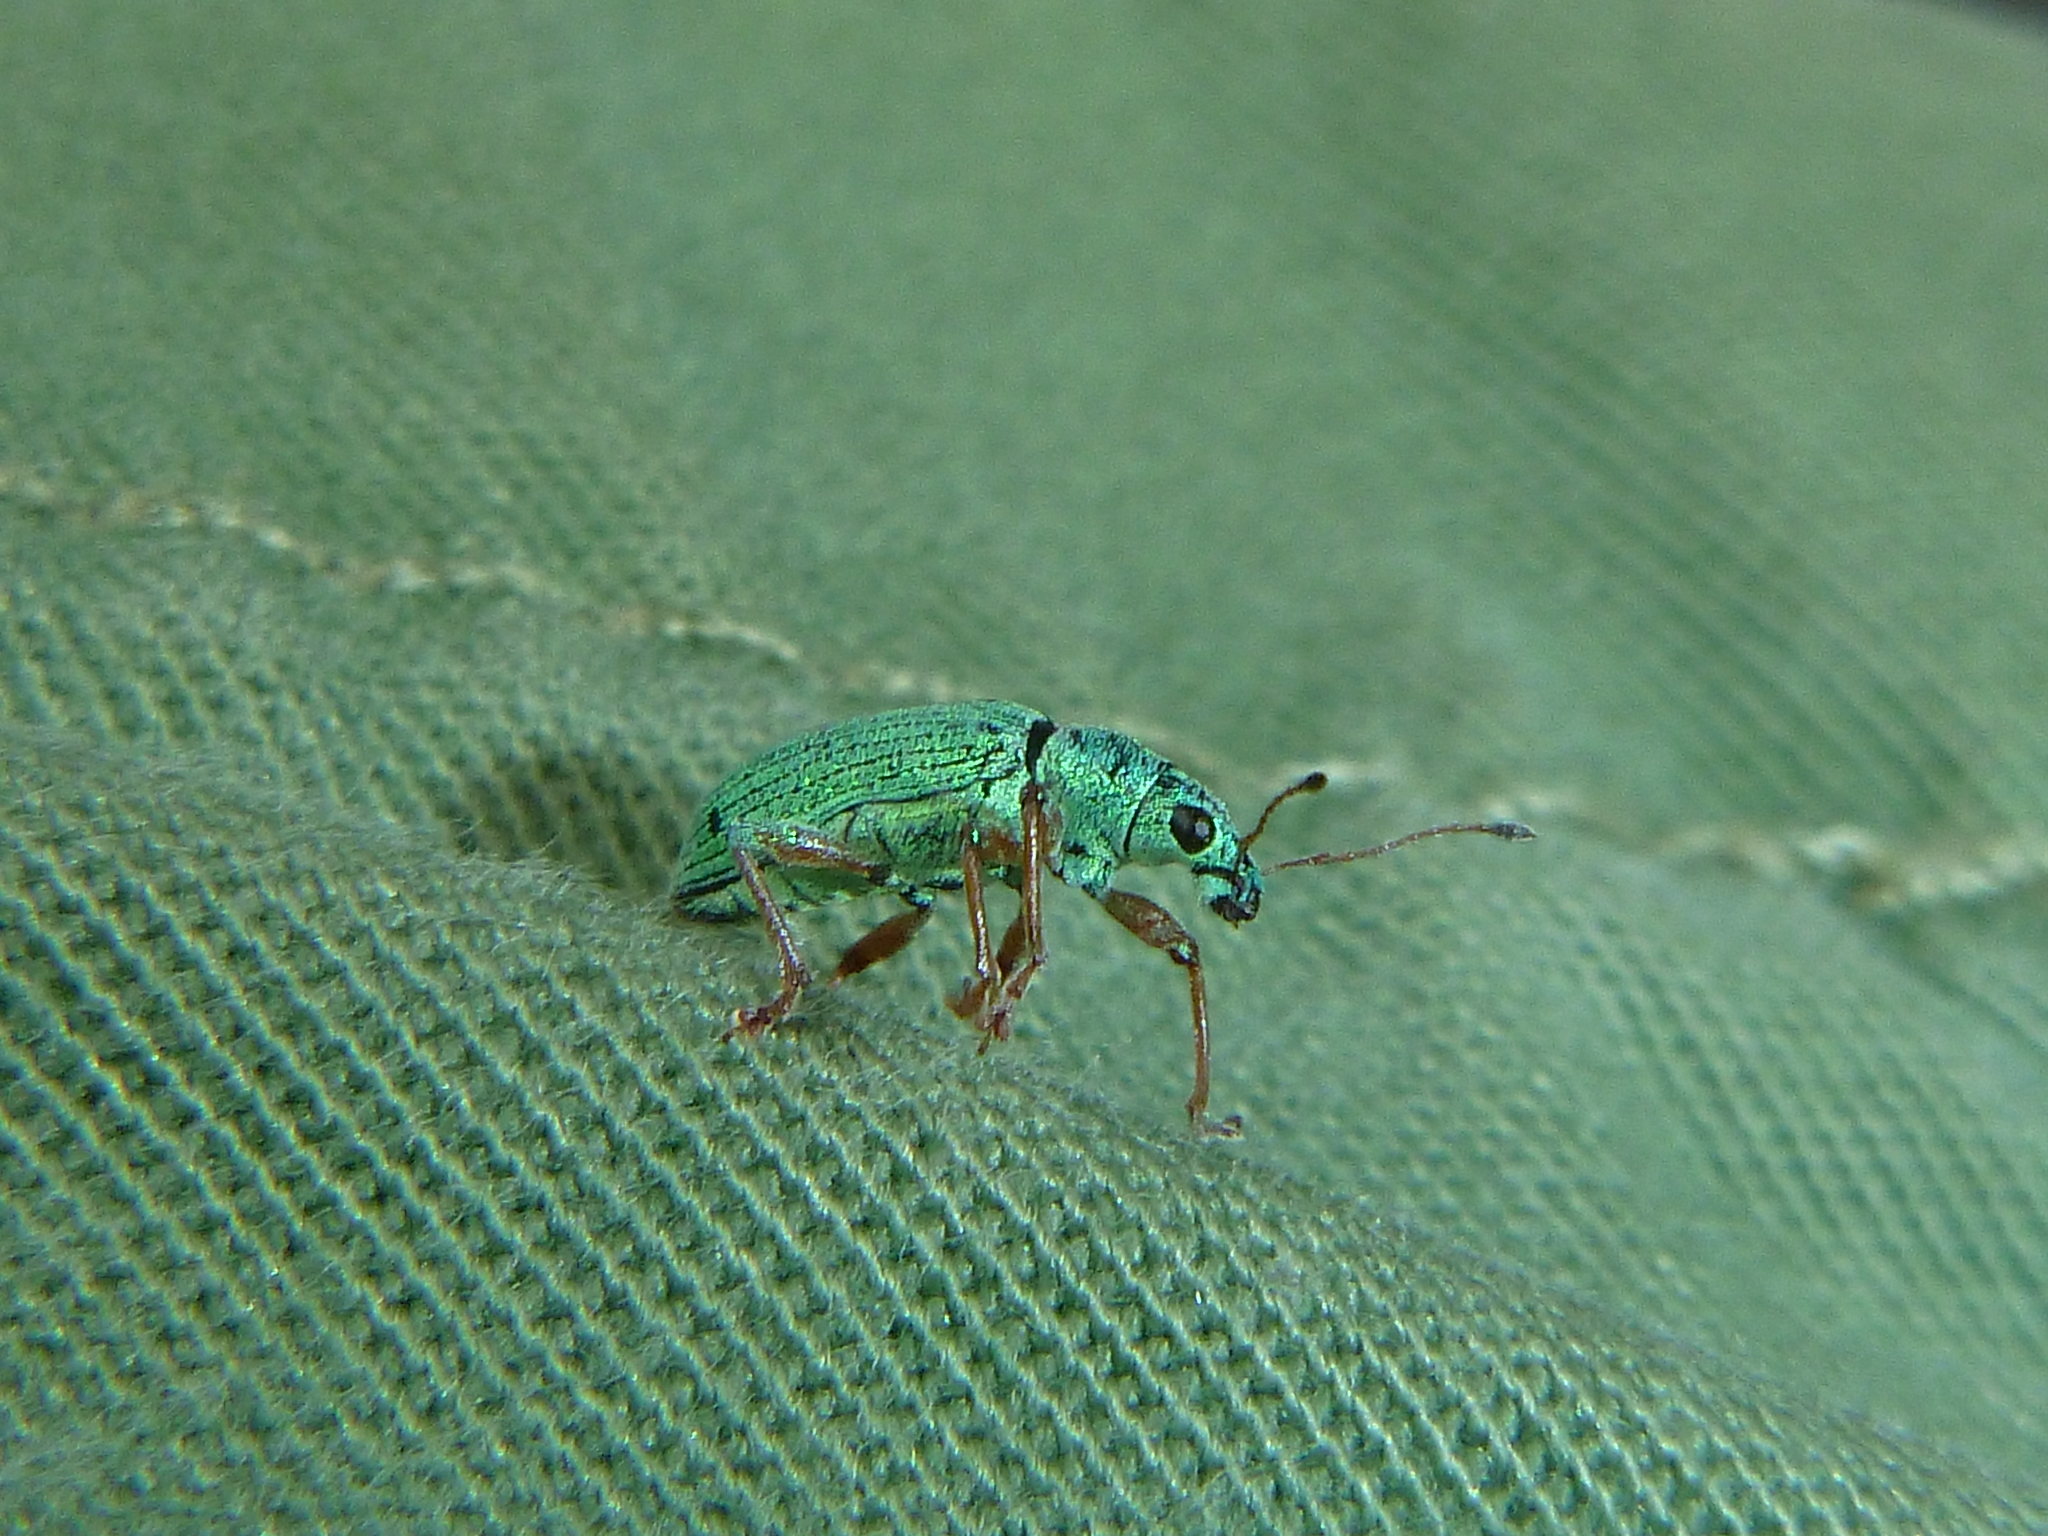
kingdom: Animalia
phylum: Arthropoda
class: Insecta
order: Coleoptera
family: Curculionidae
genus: Polydrusus
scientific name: Polydrusus formosus
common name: Weevil
